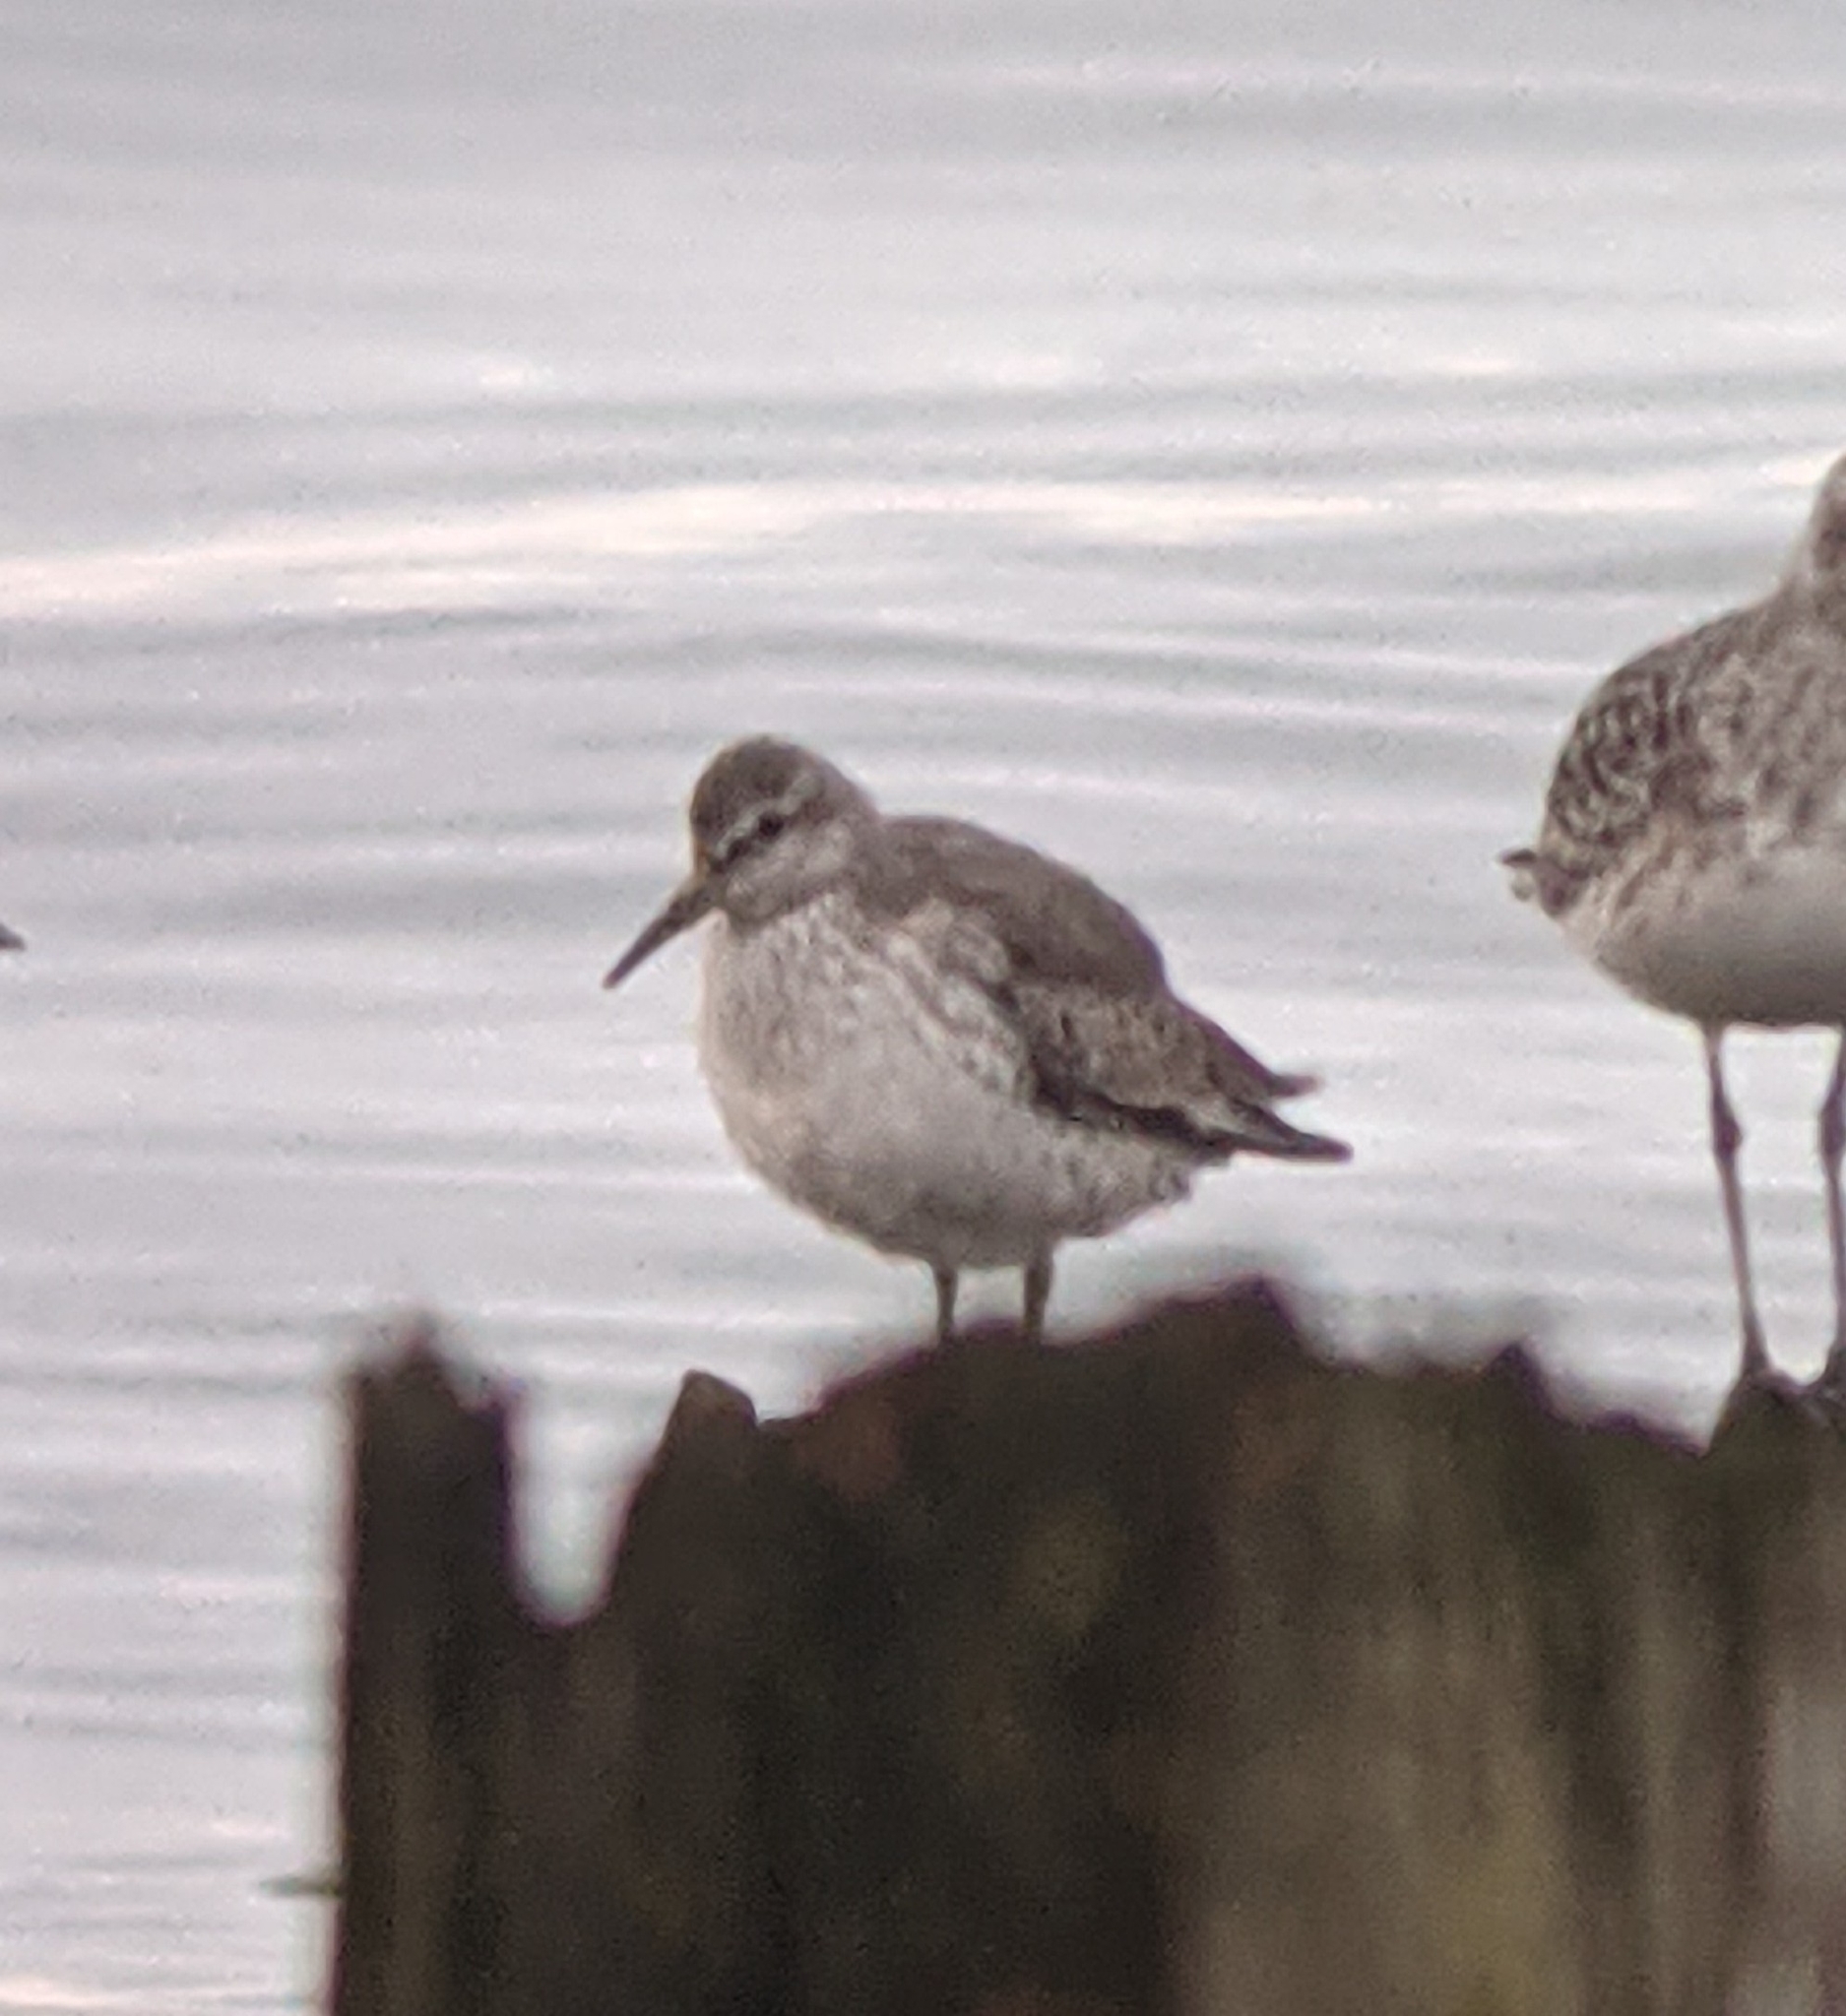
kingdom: Animalia
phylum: Chordata
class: Aves
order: Charadriiformes
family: Scolopacidae
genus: Calidris
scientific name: Calidris canutus
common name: Red knot
